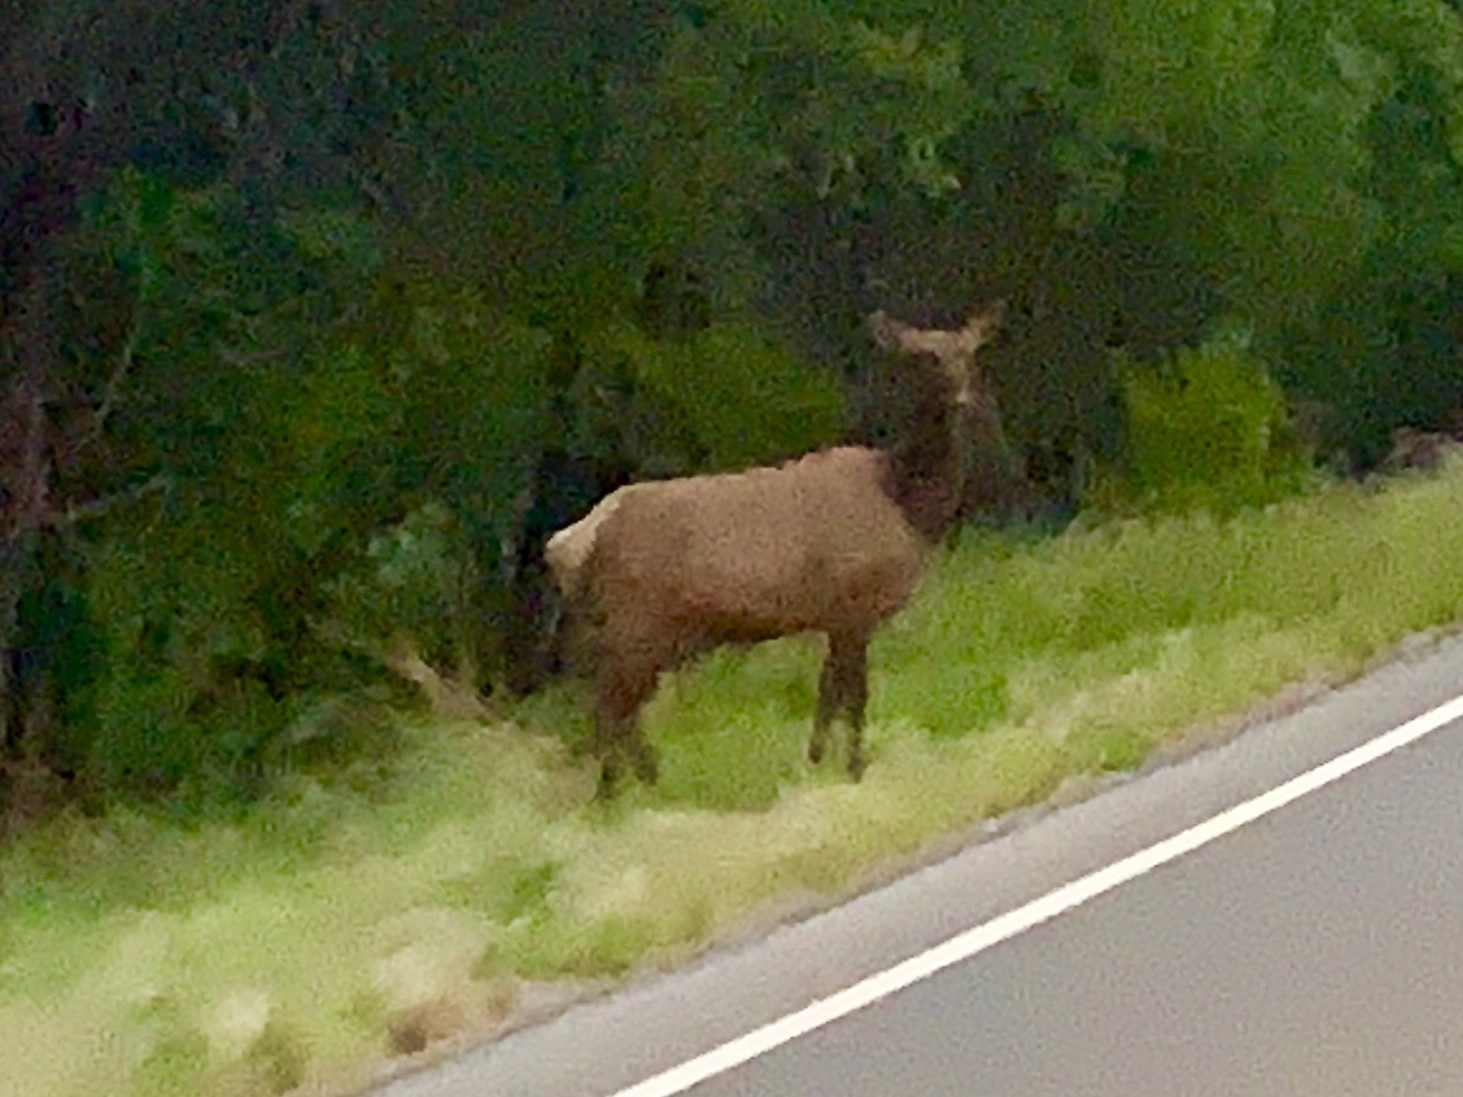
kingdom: Animalia
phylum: Chordata
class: Mammalia
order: Artiodactyla
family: Cervidae
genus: Cervus
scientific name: Cervus elaphus
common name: Red deer
